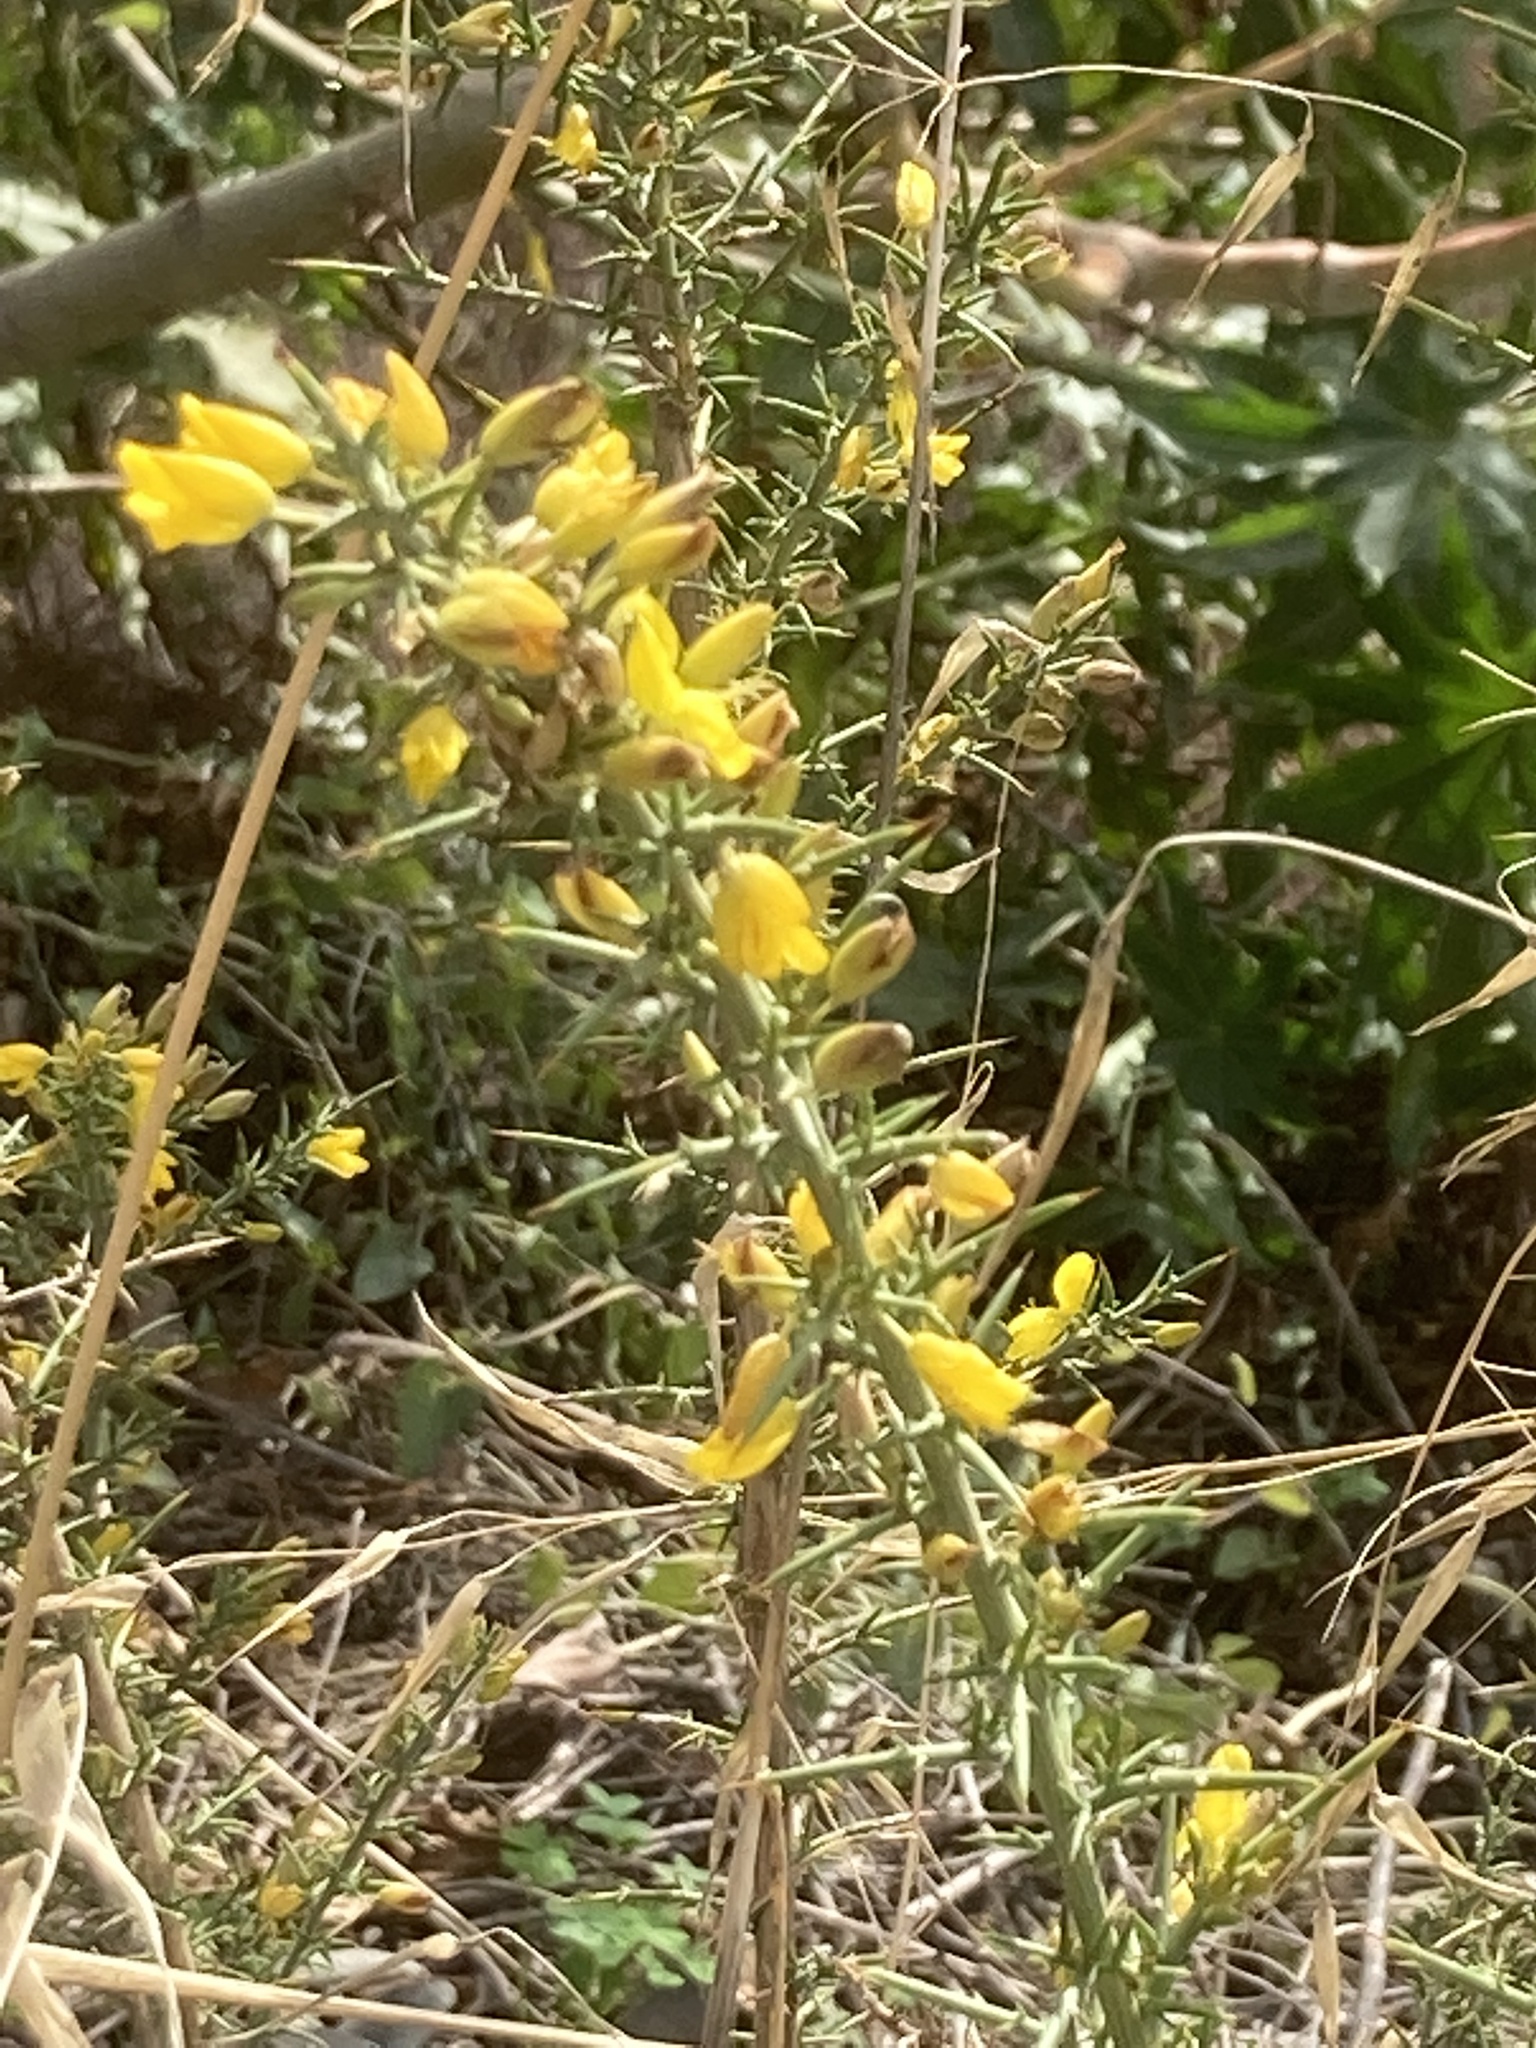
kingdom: Plantae
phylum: Tracheophyta
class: Magnoliopsida
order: Fabales
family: Fabaceae
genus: Ulex
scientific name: Ulex parviflorus
